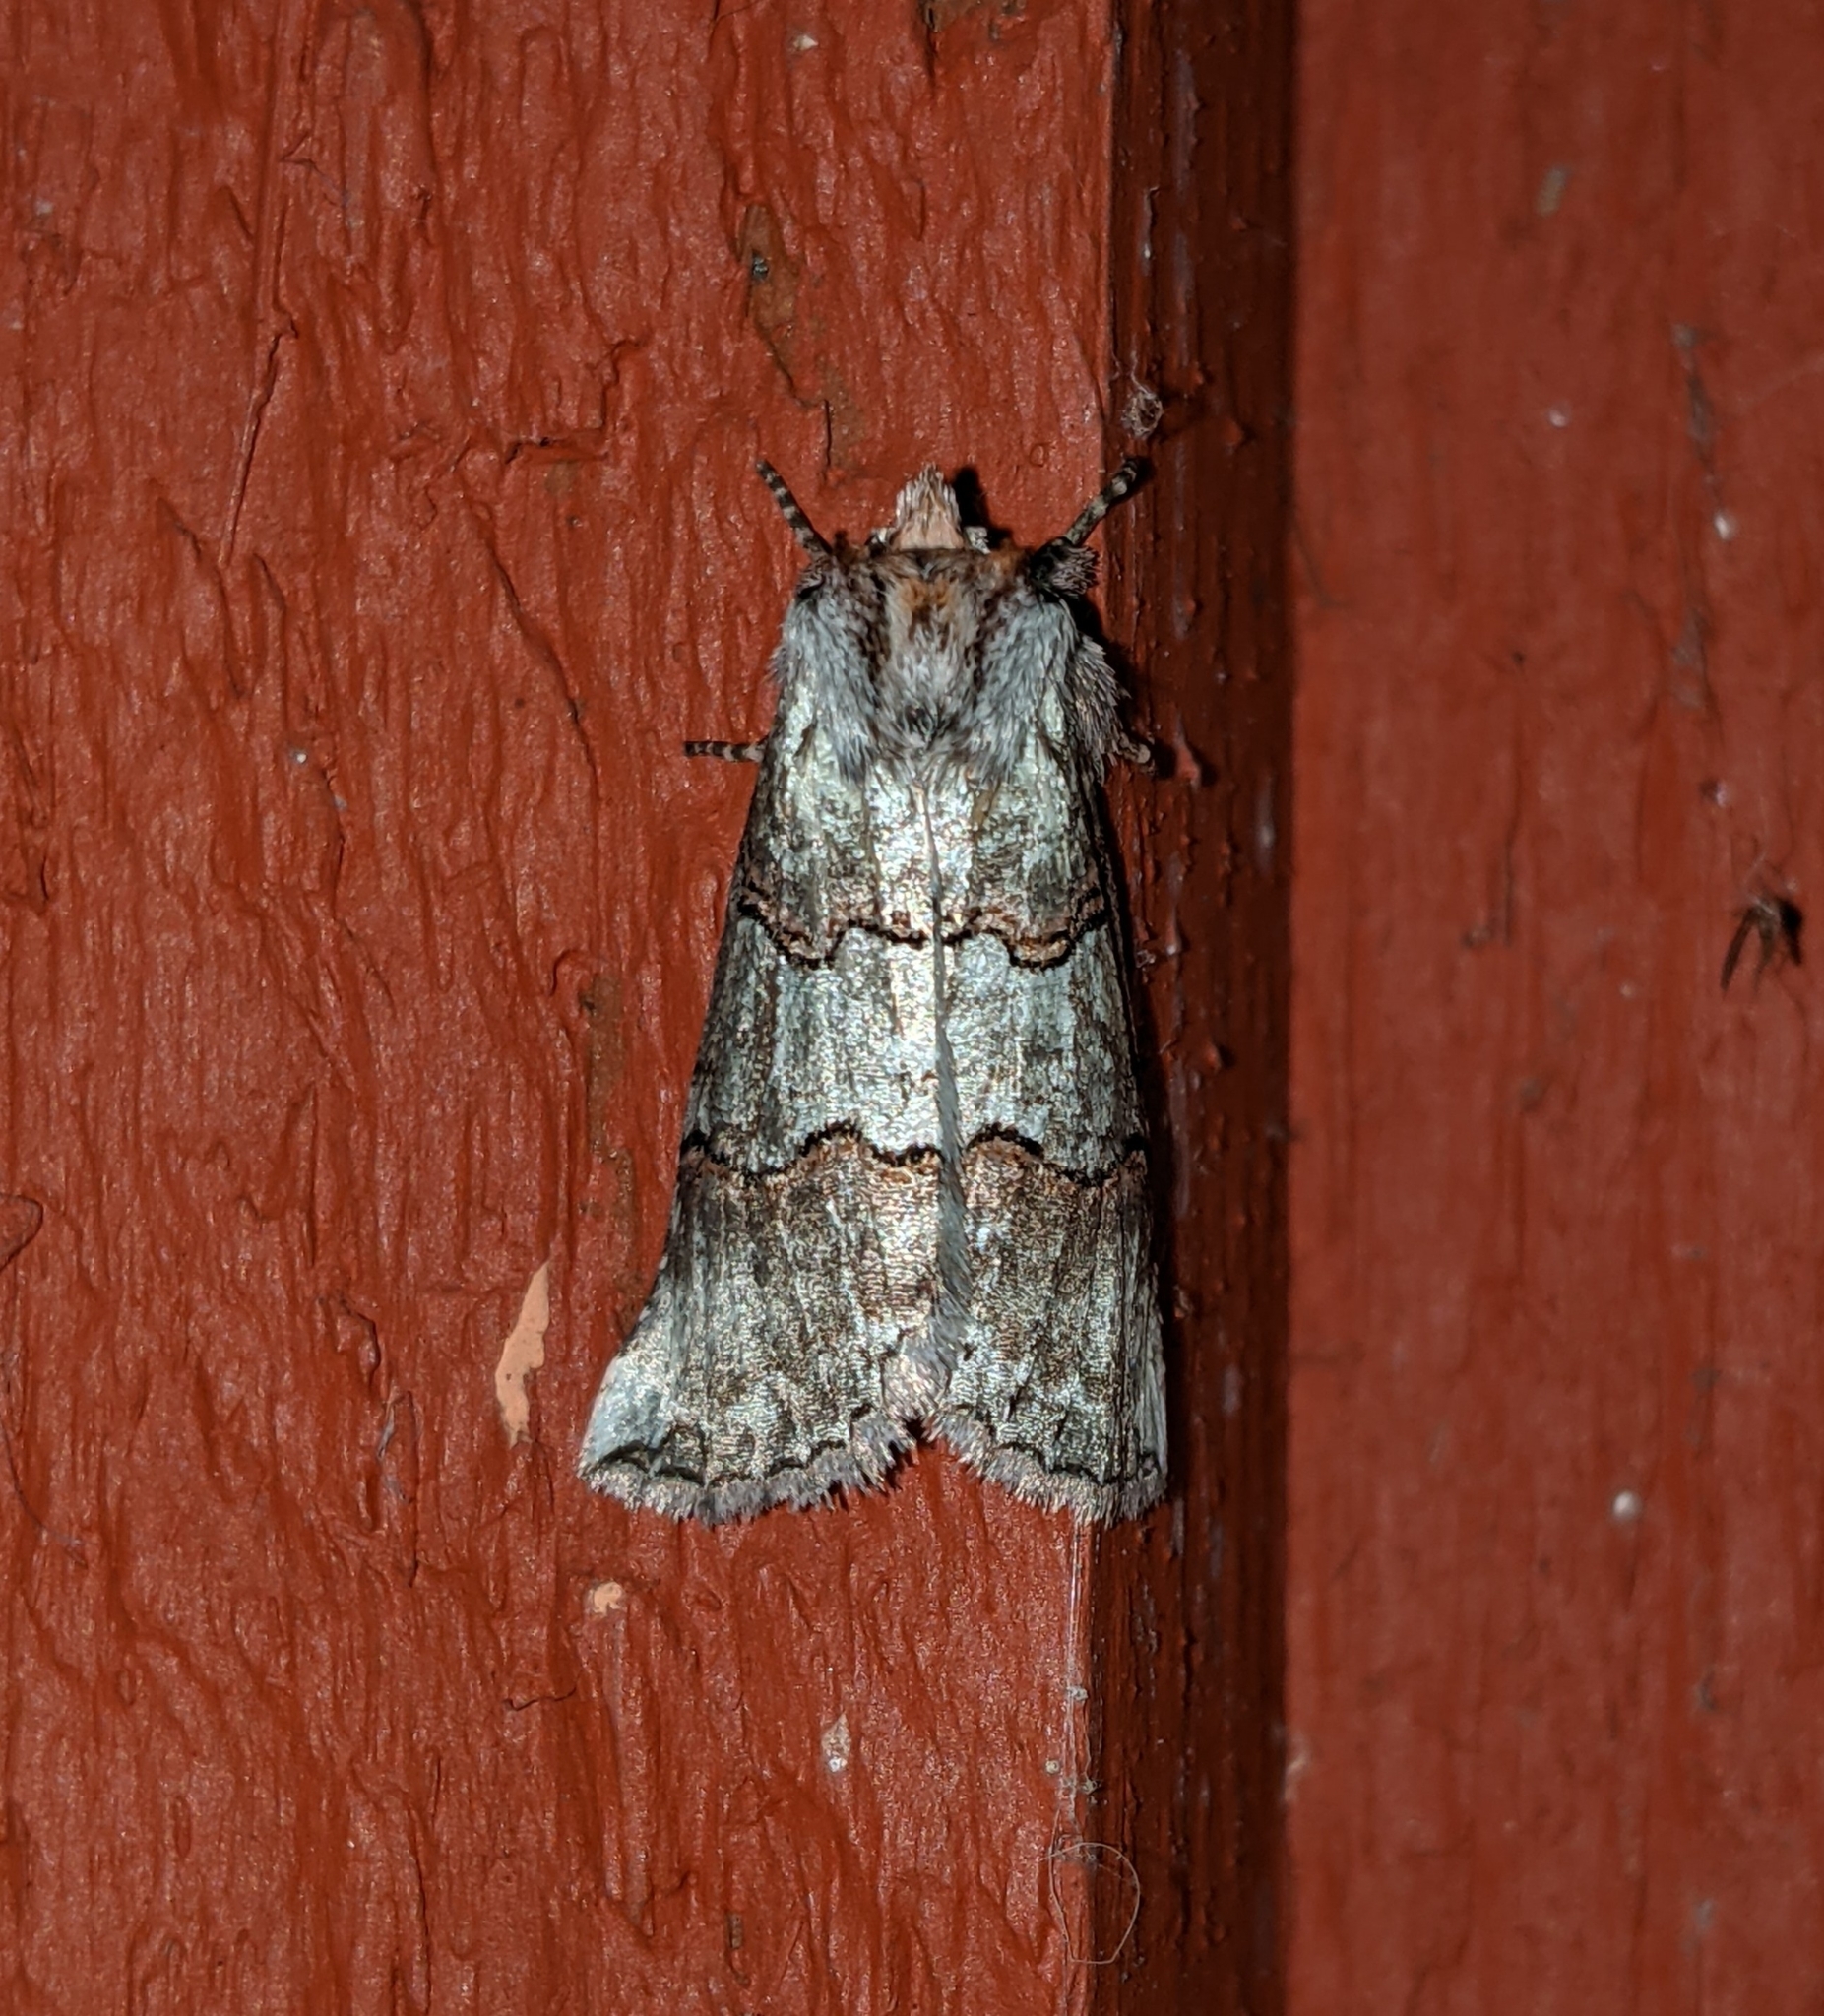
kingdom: Animalia
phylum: Arthropoda
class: Insecta
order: Lepidoptera
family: Drepanidae
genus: Ceranemota
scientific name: Ceranemota fasciata
